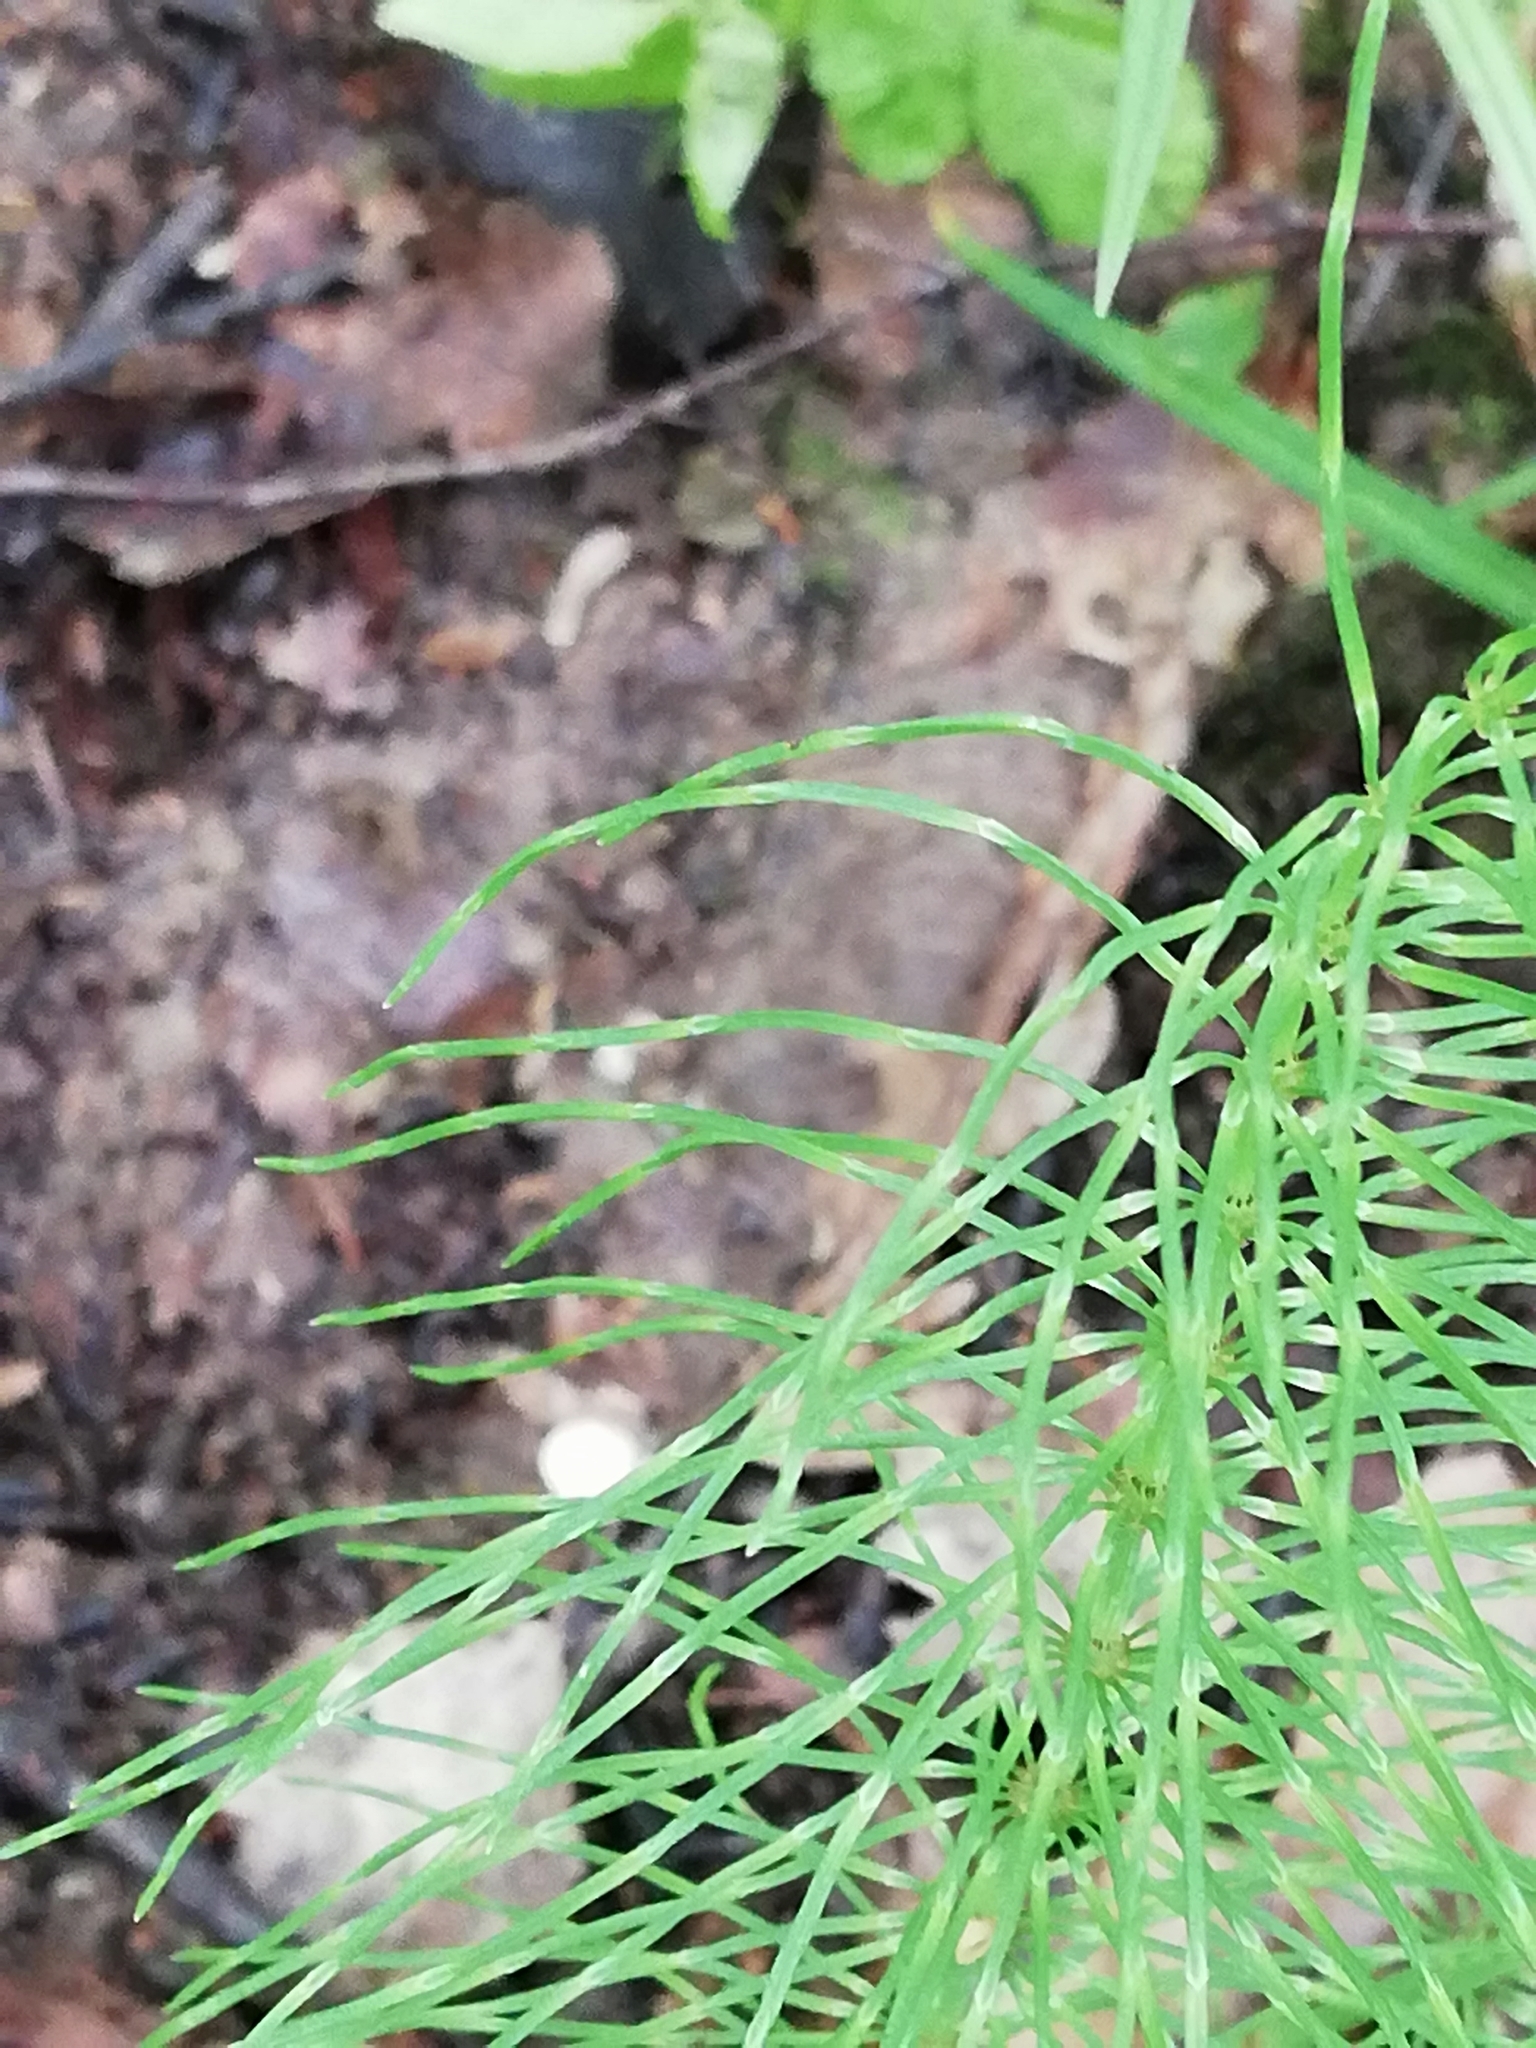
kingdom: Plantae
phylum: Tracheophyta
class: Polypodiopsida
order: Equisetales
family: Equisetaceae
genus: Equisetum
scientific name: Equisetum pratense
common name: Meadow horsetail
